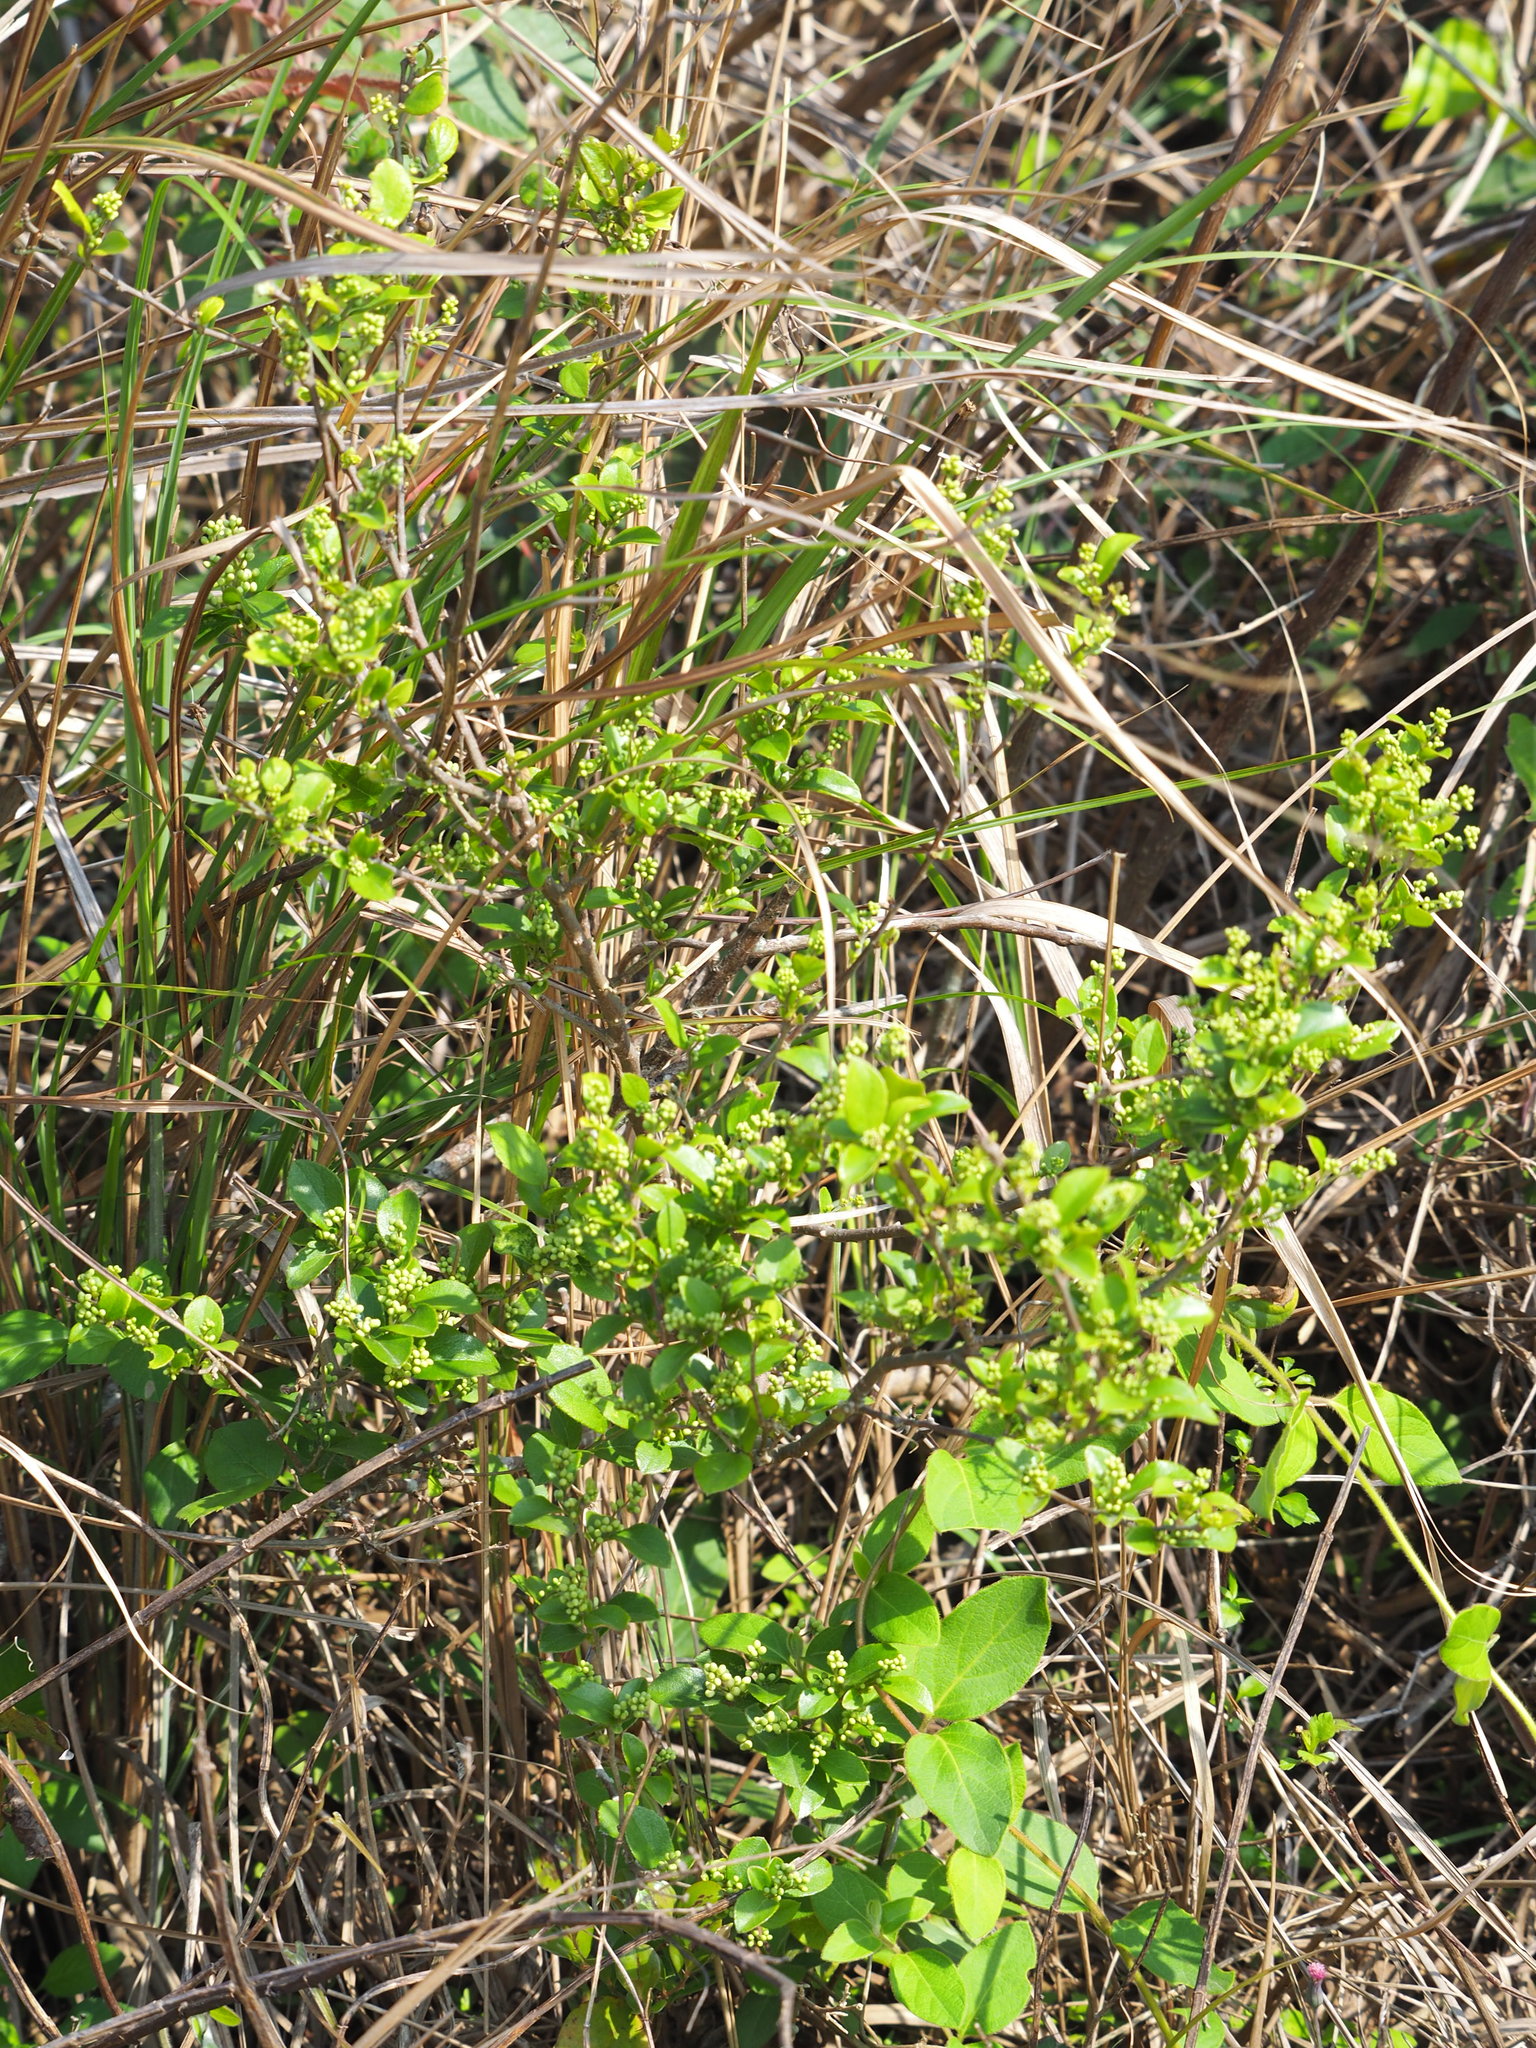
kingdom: Plantae
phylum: Tracheophyta
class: Magnoliopsida
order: Ericales
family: Symplocaceae
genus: Symplocos
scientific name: Symplocos paniculata
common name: Sapphire-berry
